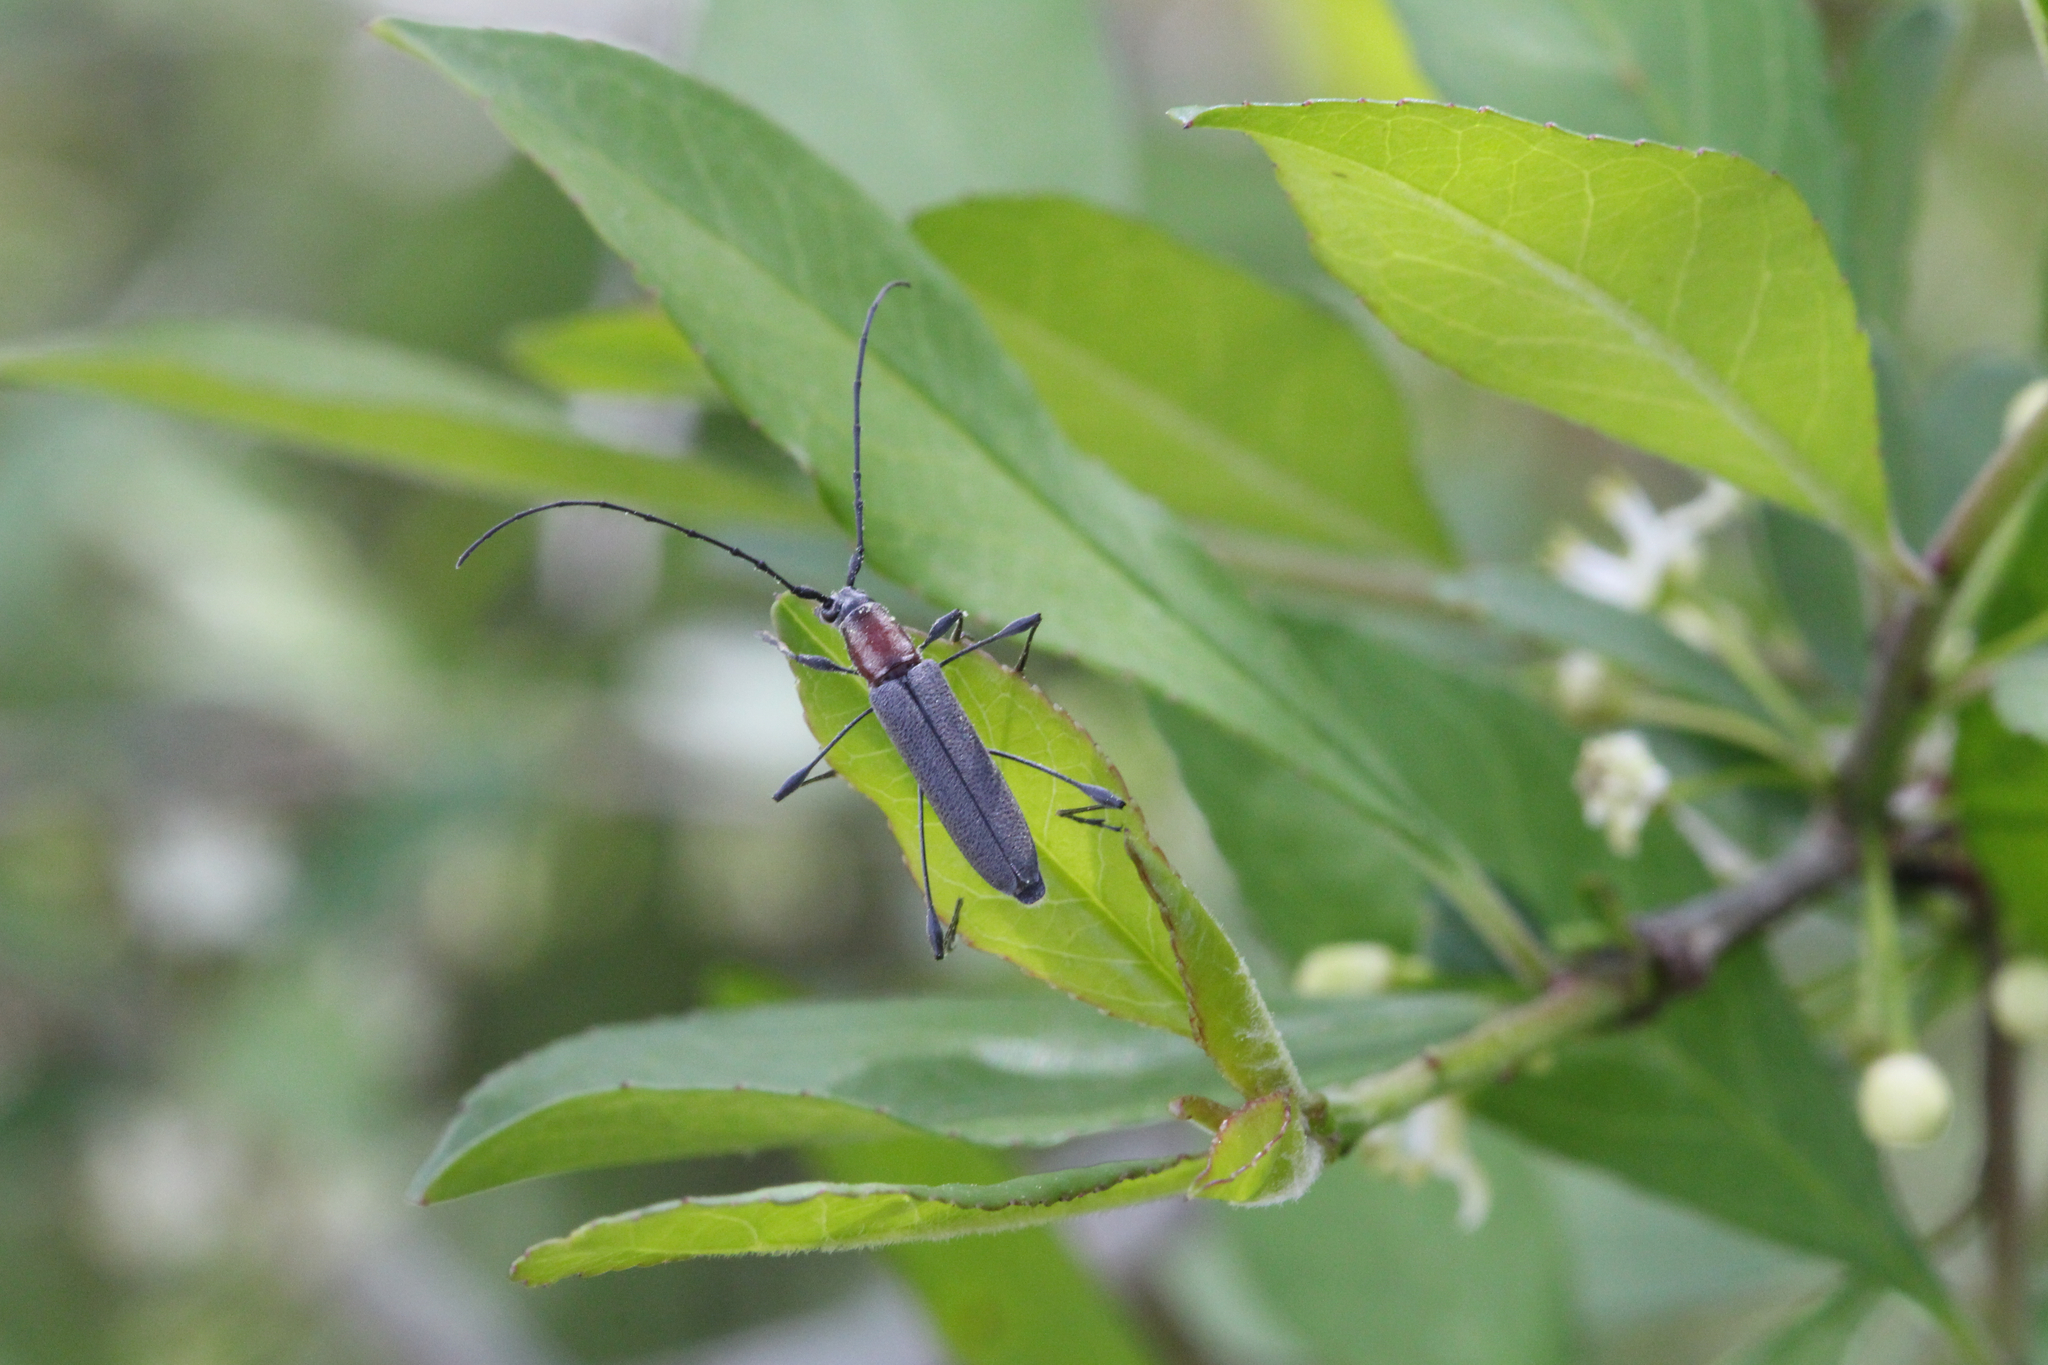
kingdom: Animalia
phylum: Arthropoda
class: Insecta
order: Coleoptera
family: Cerambycidae
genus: Rhopalophora
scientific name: Rhopalophora longipes
